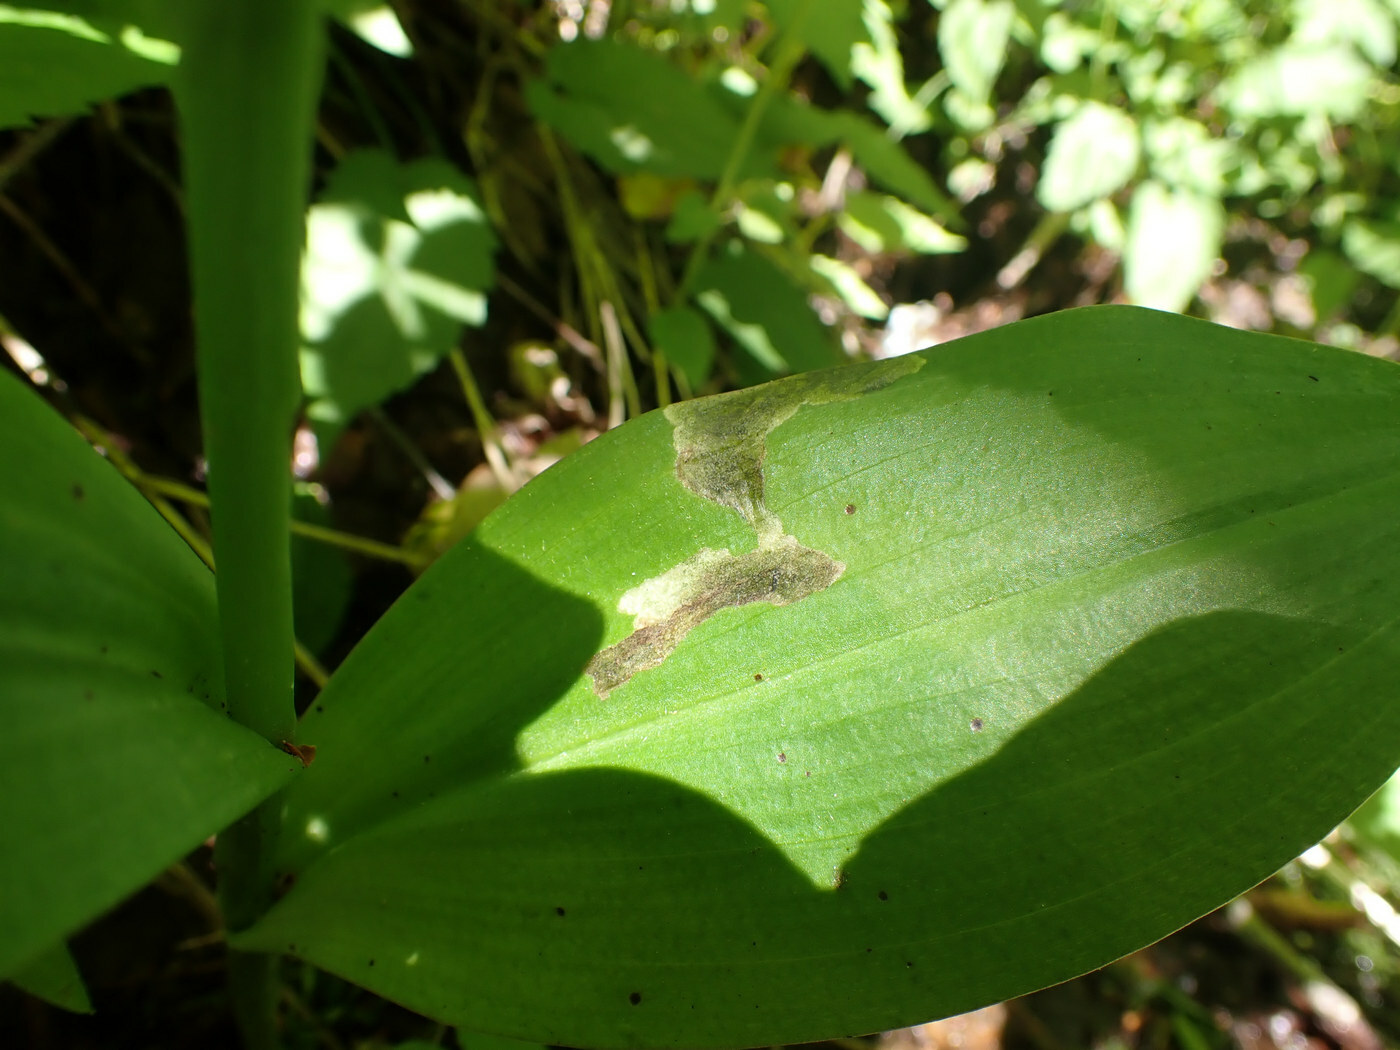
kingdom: Animalia
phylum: Arthropoda
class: Insecta
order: Diptera
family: Scathophagidae
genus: Leptopa
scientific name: Leptopa
